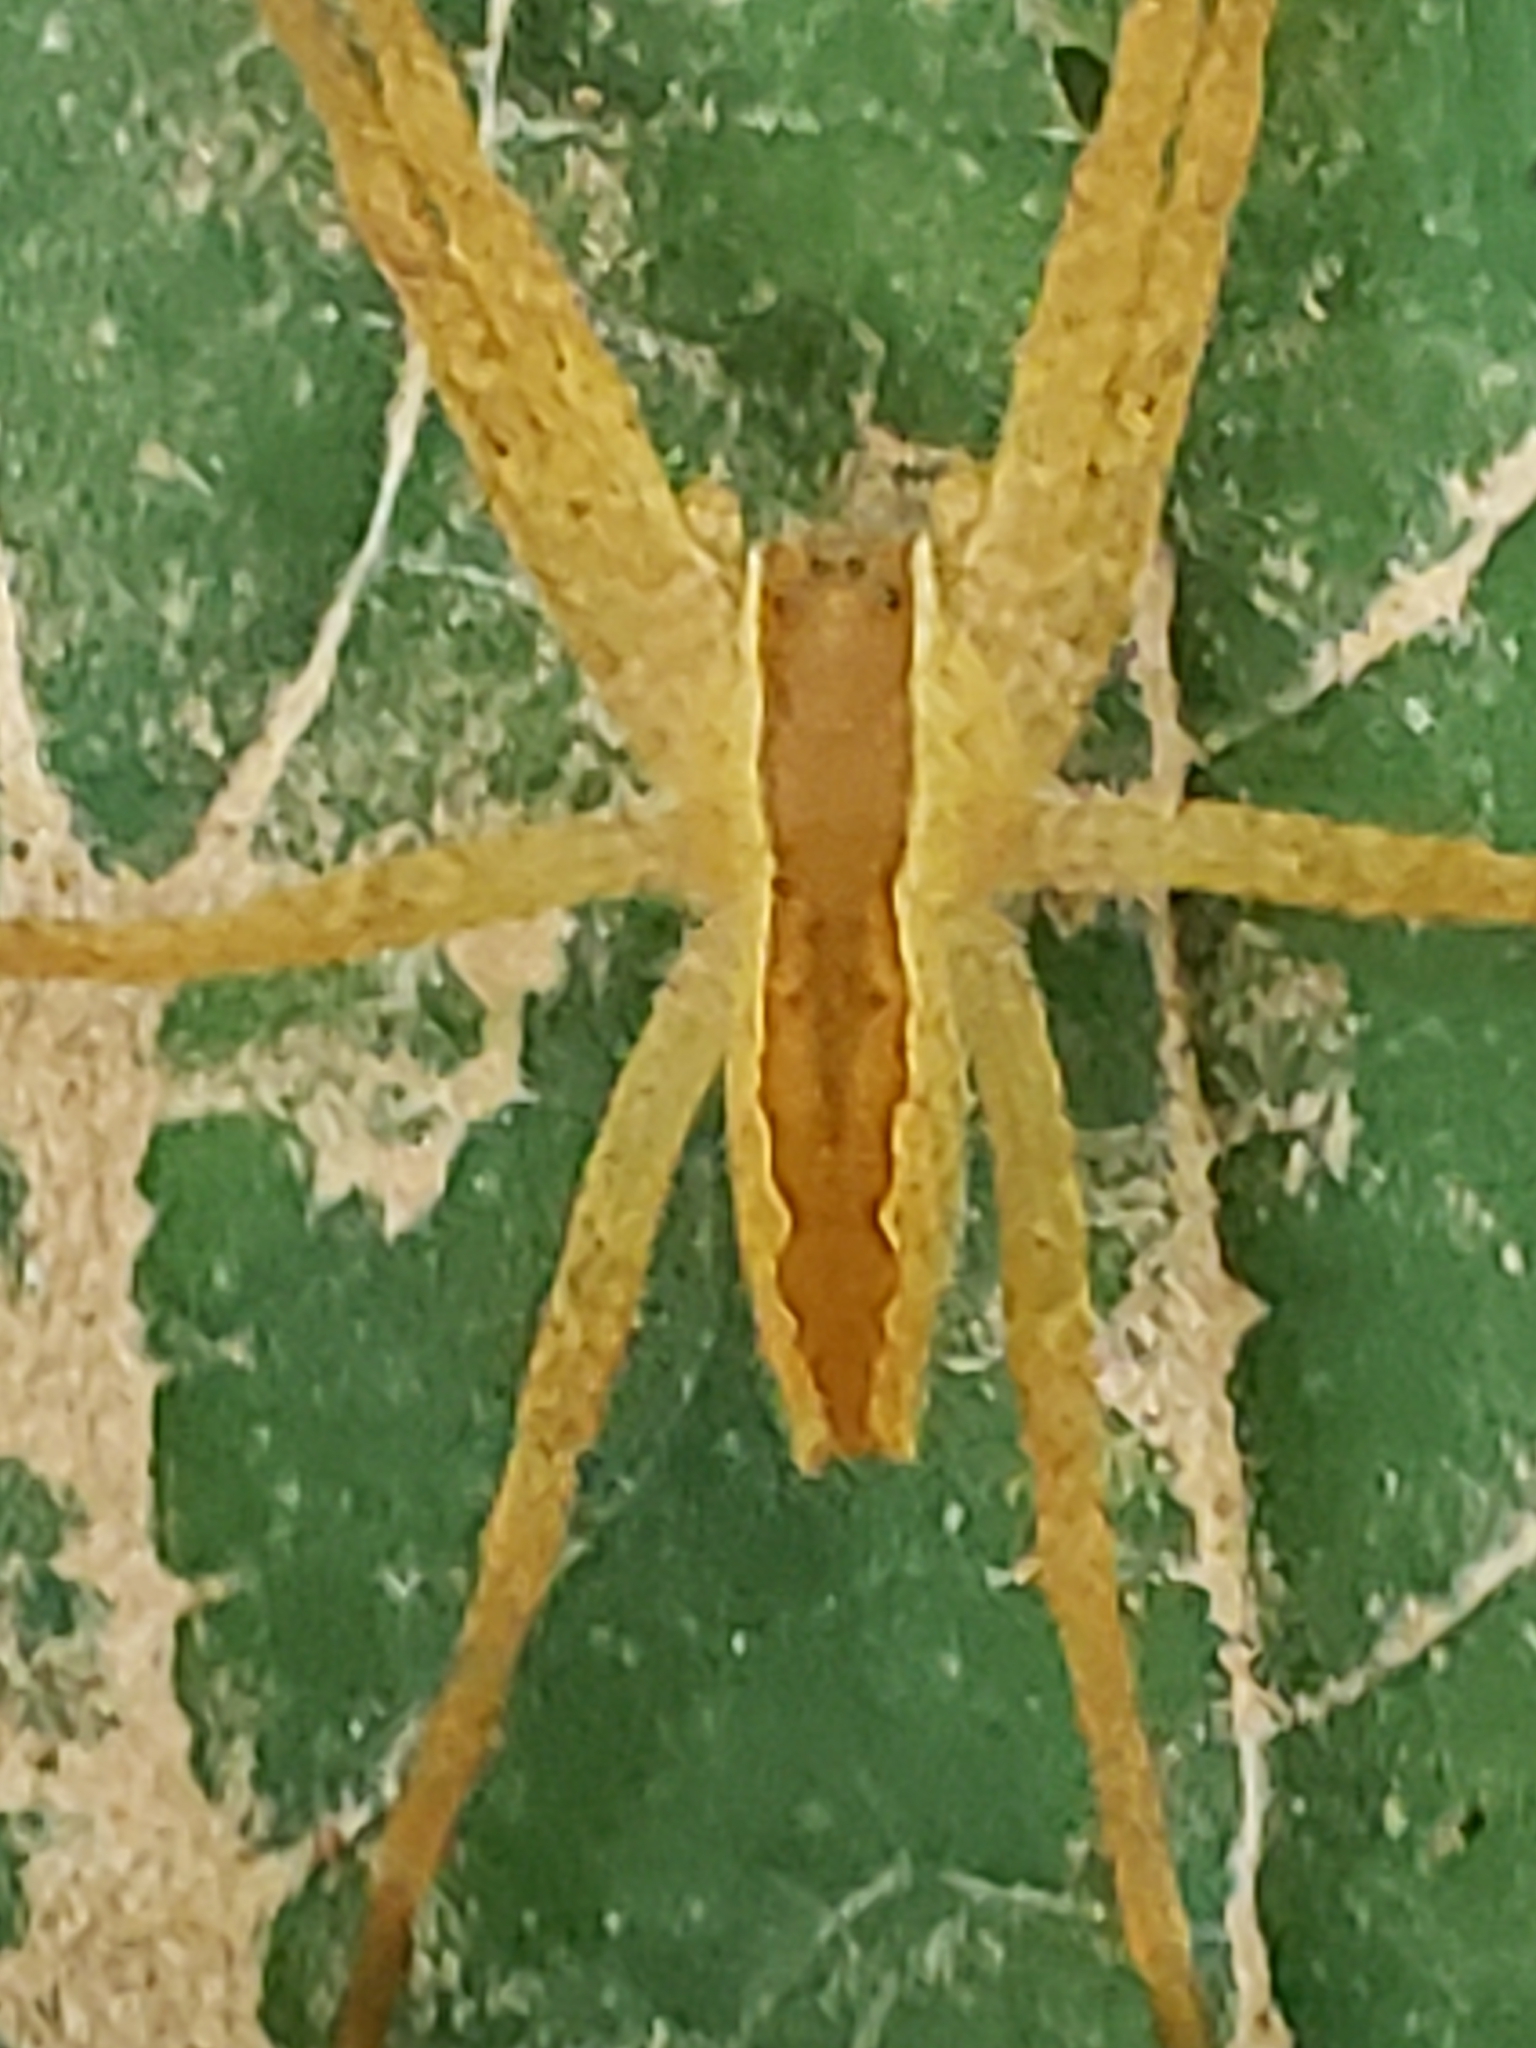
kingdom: Animalia
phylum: Arthropoda
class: Arachnida
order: Araneae
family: Pisauridae
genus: Pisaurina
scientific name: Pisaurina mira
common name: American nursery web spider
